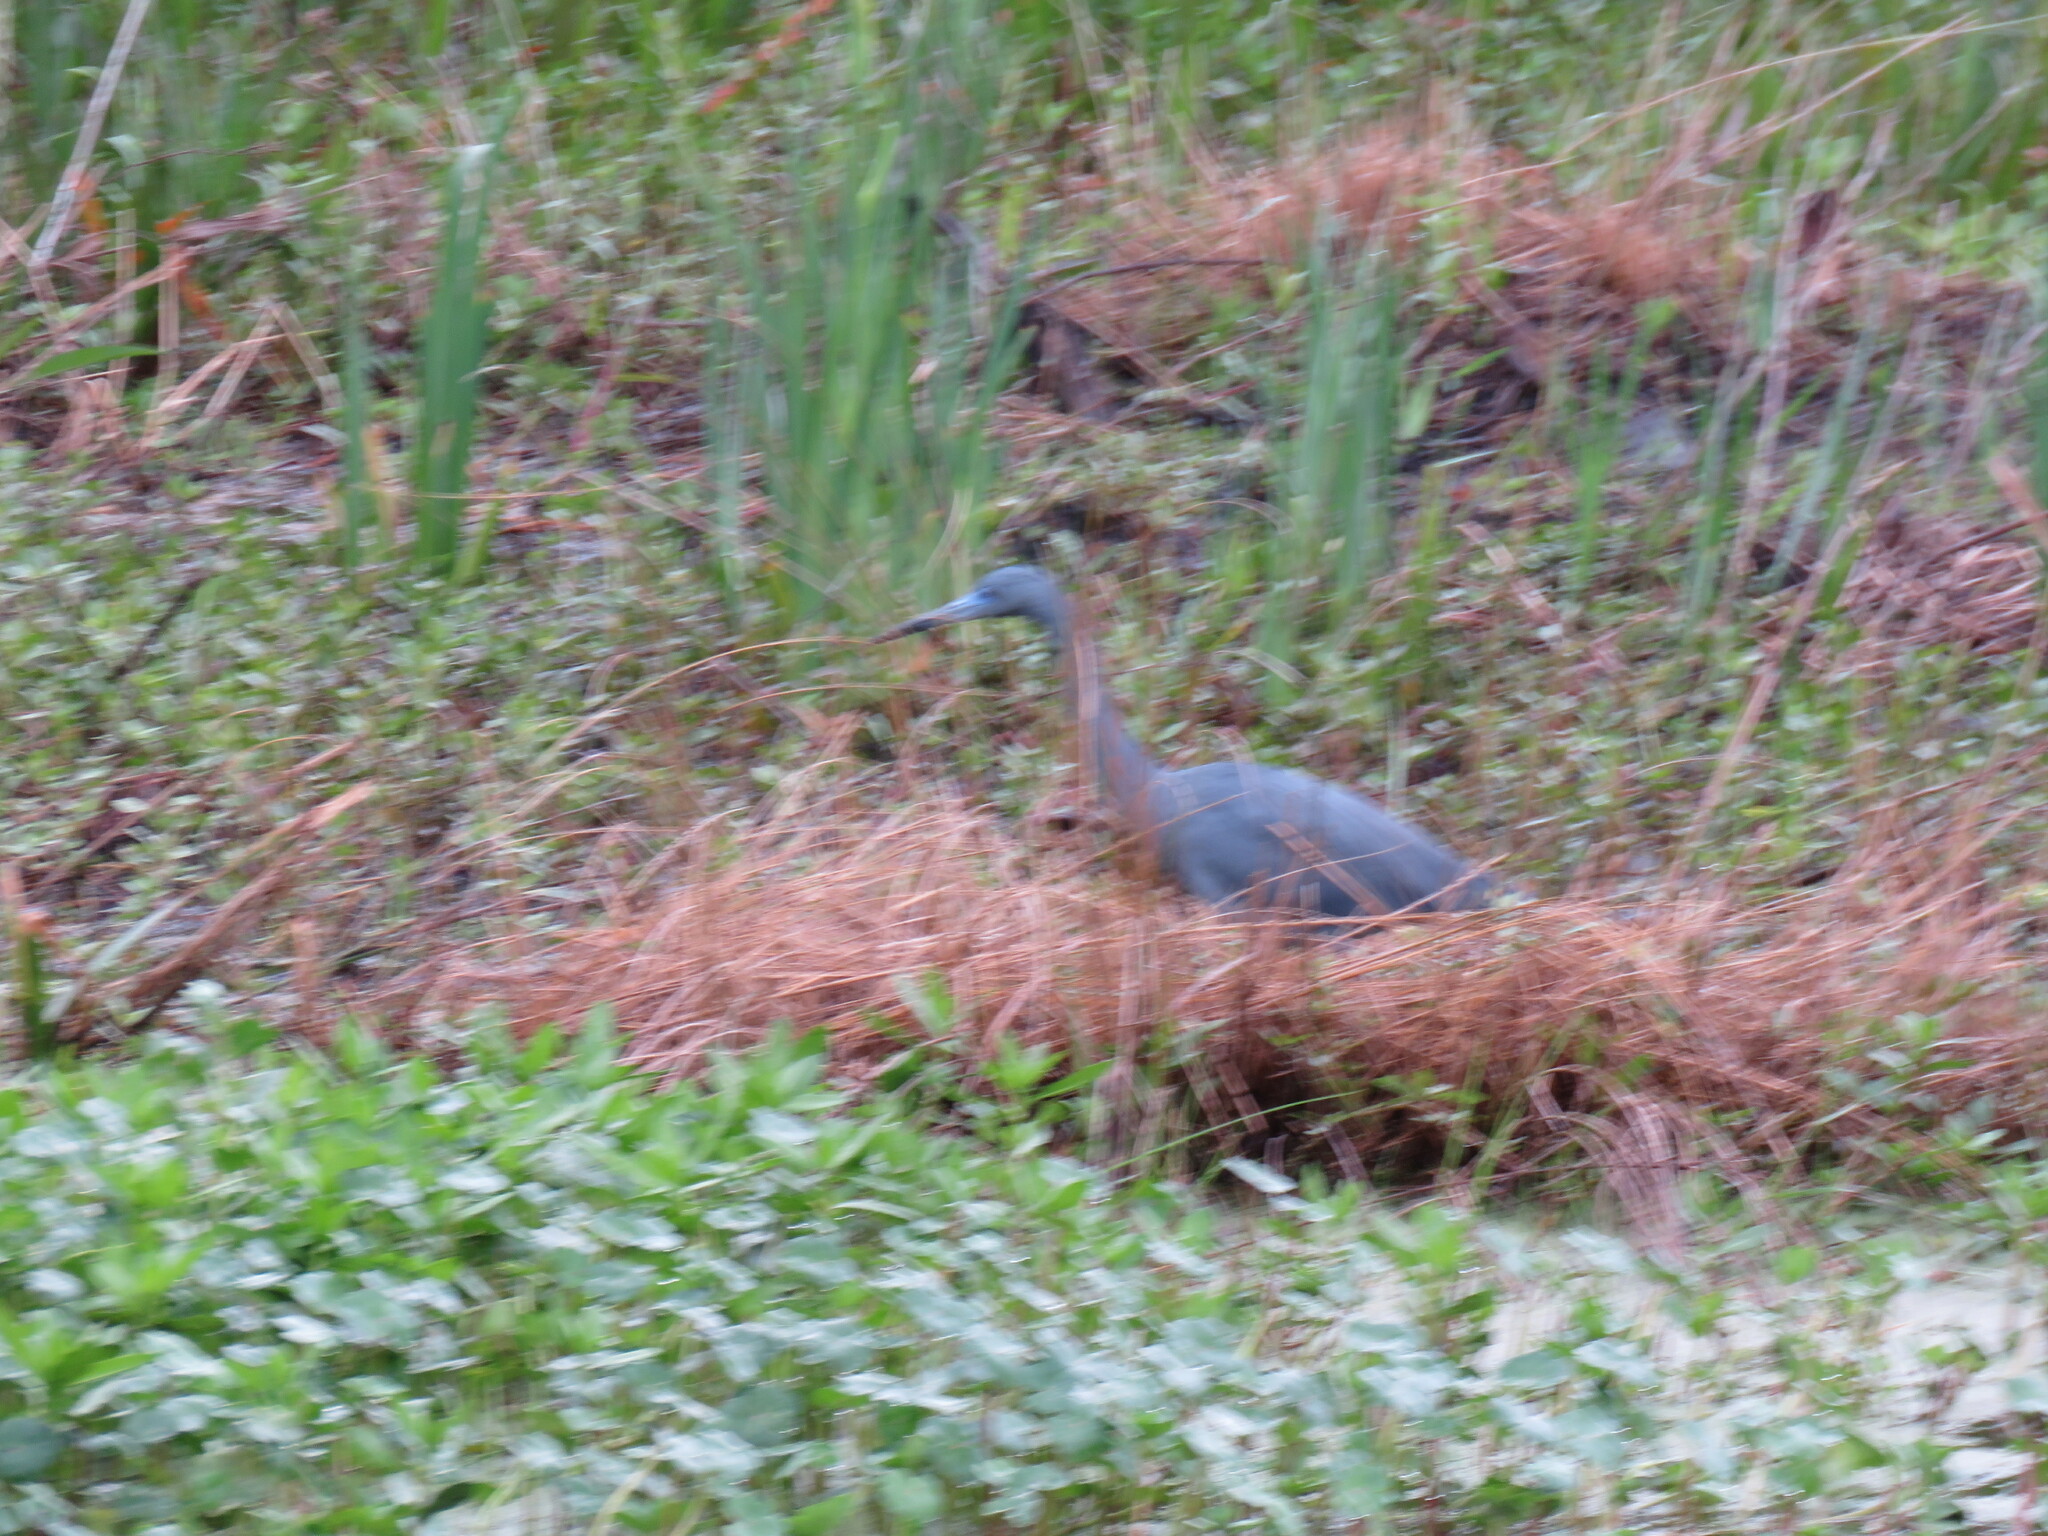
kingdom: Animalia
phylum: Chordata
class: Aves
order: Pelecaniformes
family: Ardeidae
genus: Egretta
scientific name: Egretta caerulea
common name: Little blue heron
